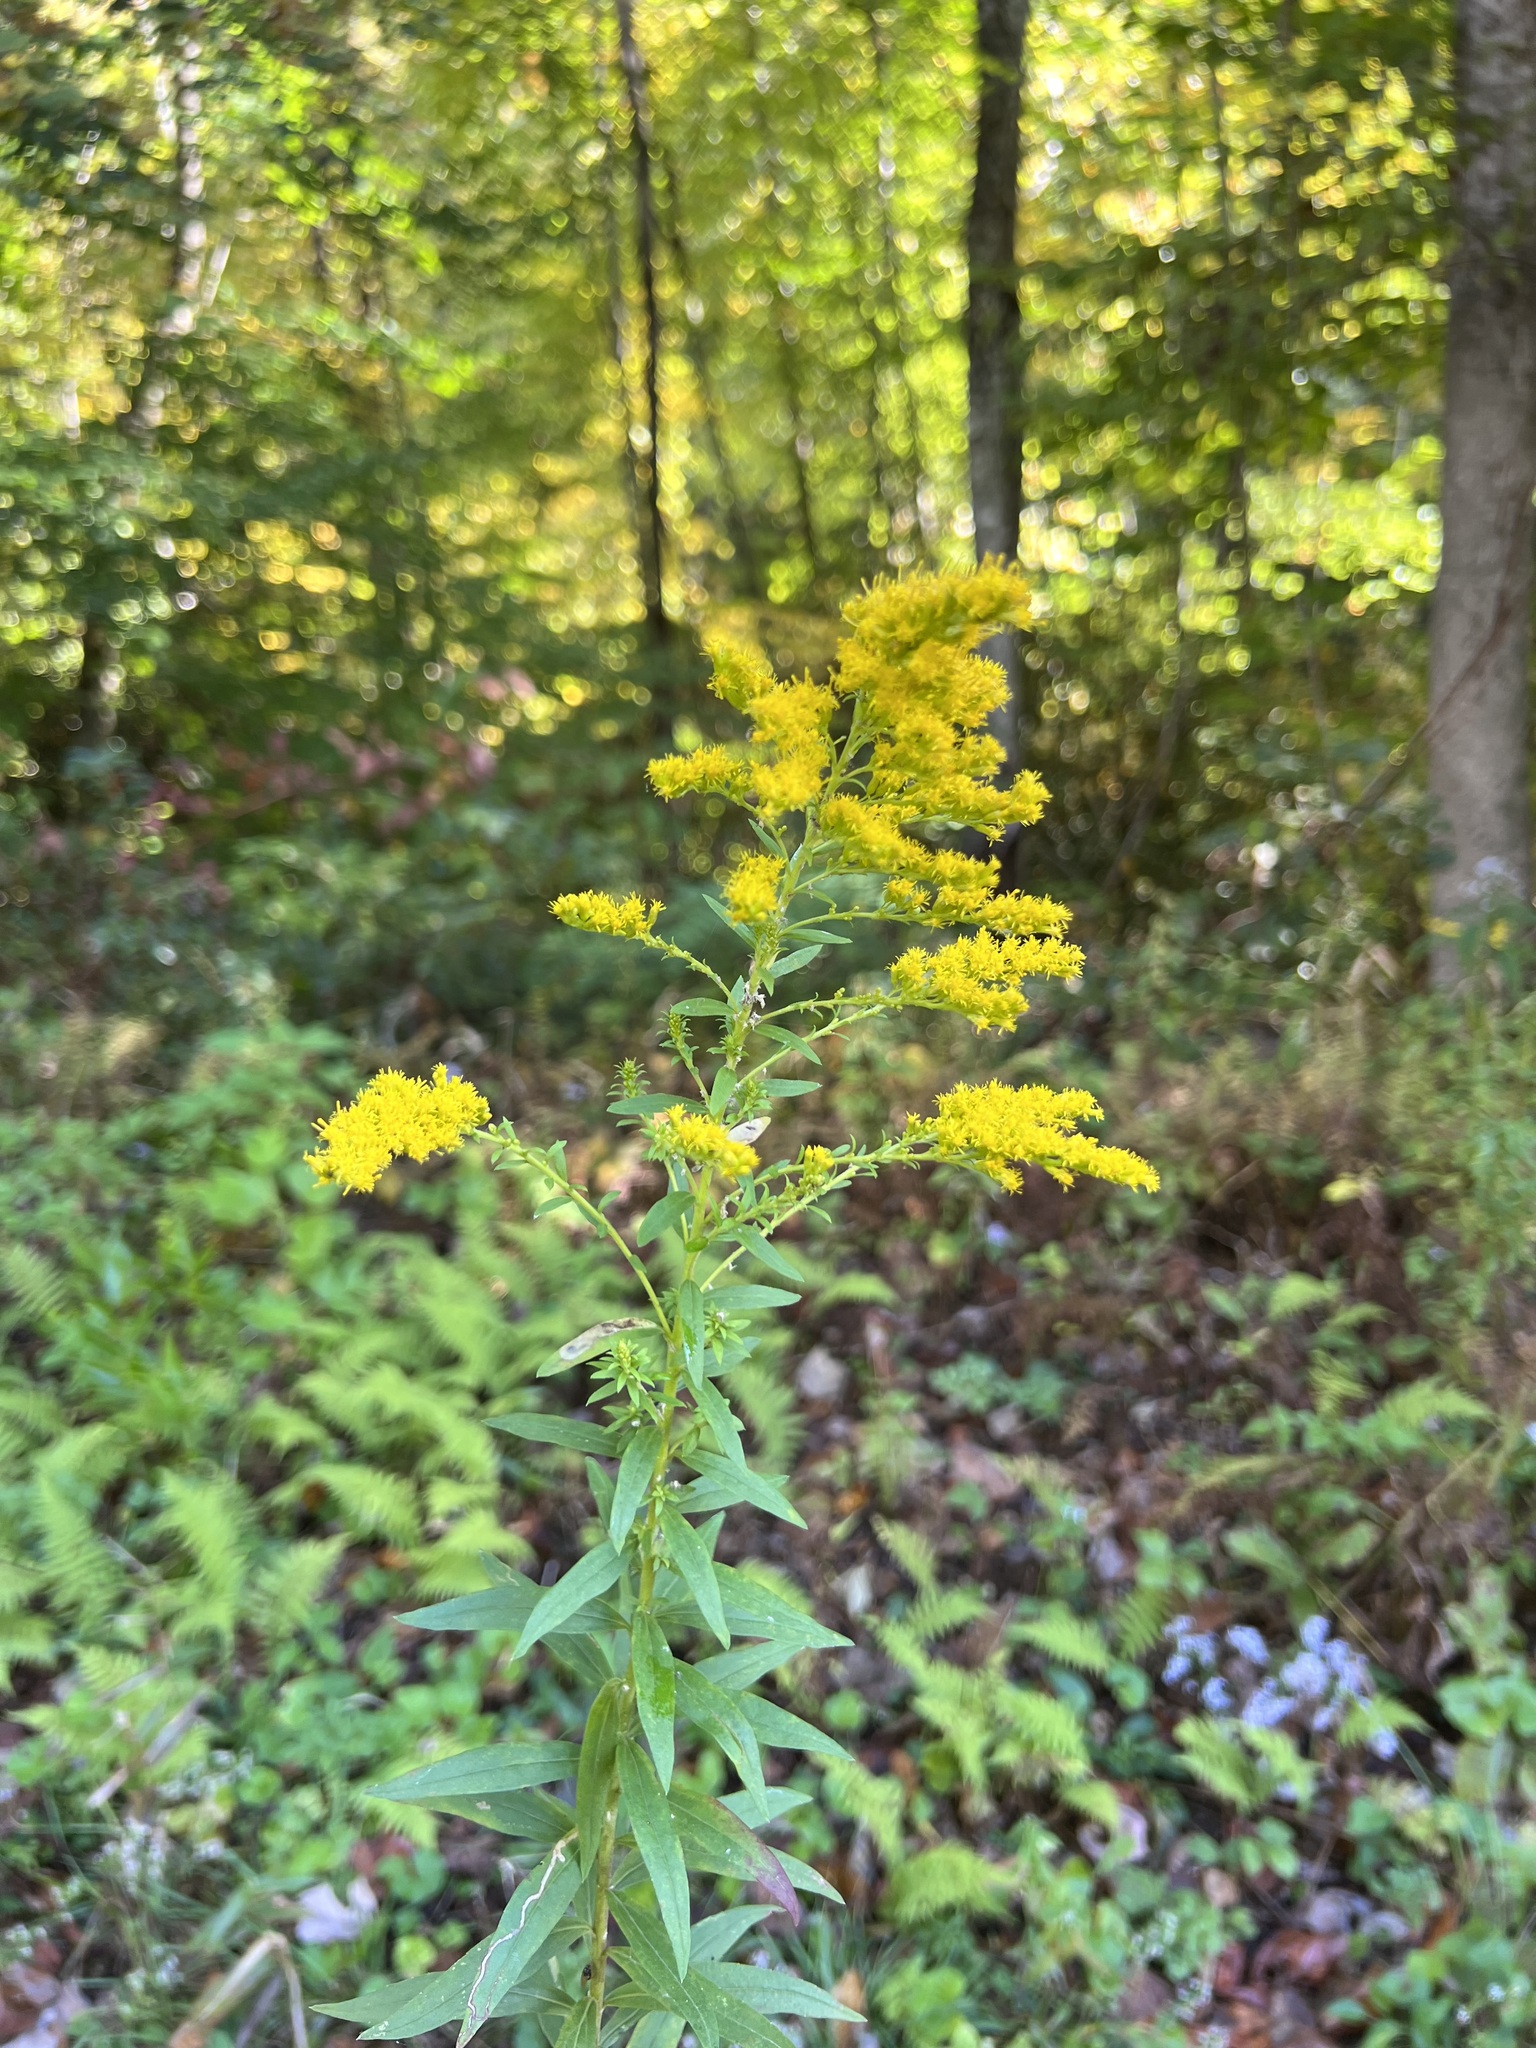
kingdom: Plantae
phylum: Tracheophyta
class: Magnoliopsida
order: Asterales
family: Asteraceae
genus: Solidago
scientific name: Solidago altissima
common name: Late goldenrod
